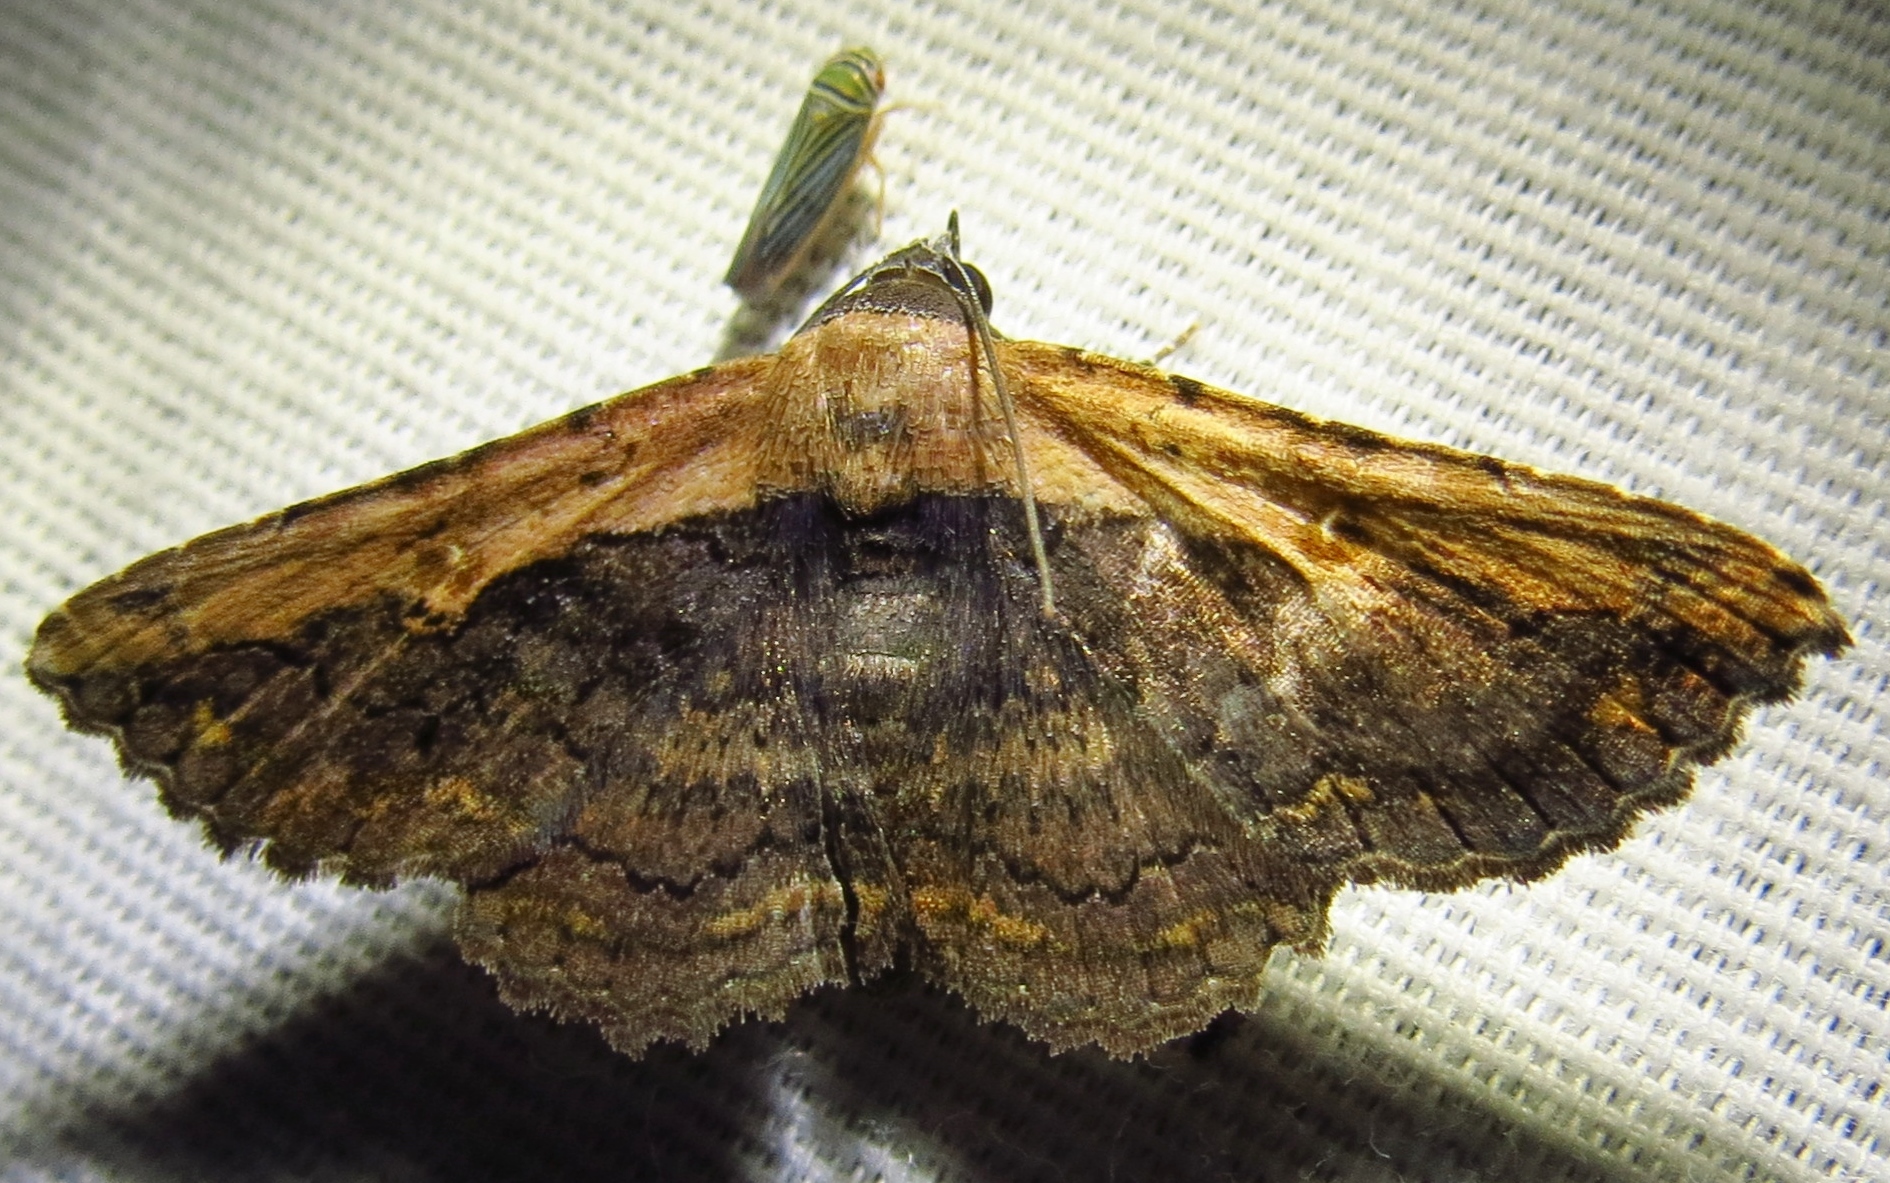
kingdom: Animalia
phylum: Arthropoda
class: Insecta
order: Lepidoptera
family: Erebidae
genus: Selenisa
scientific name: Selenisa sueroides
